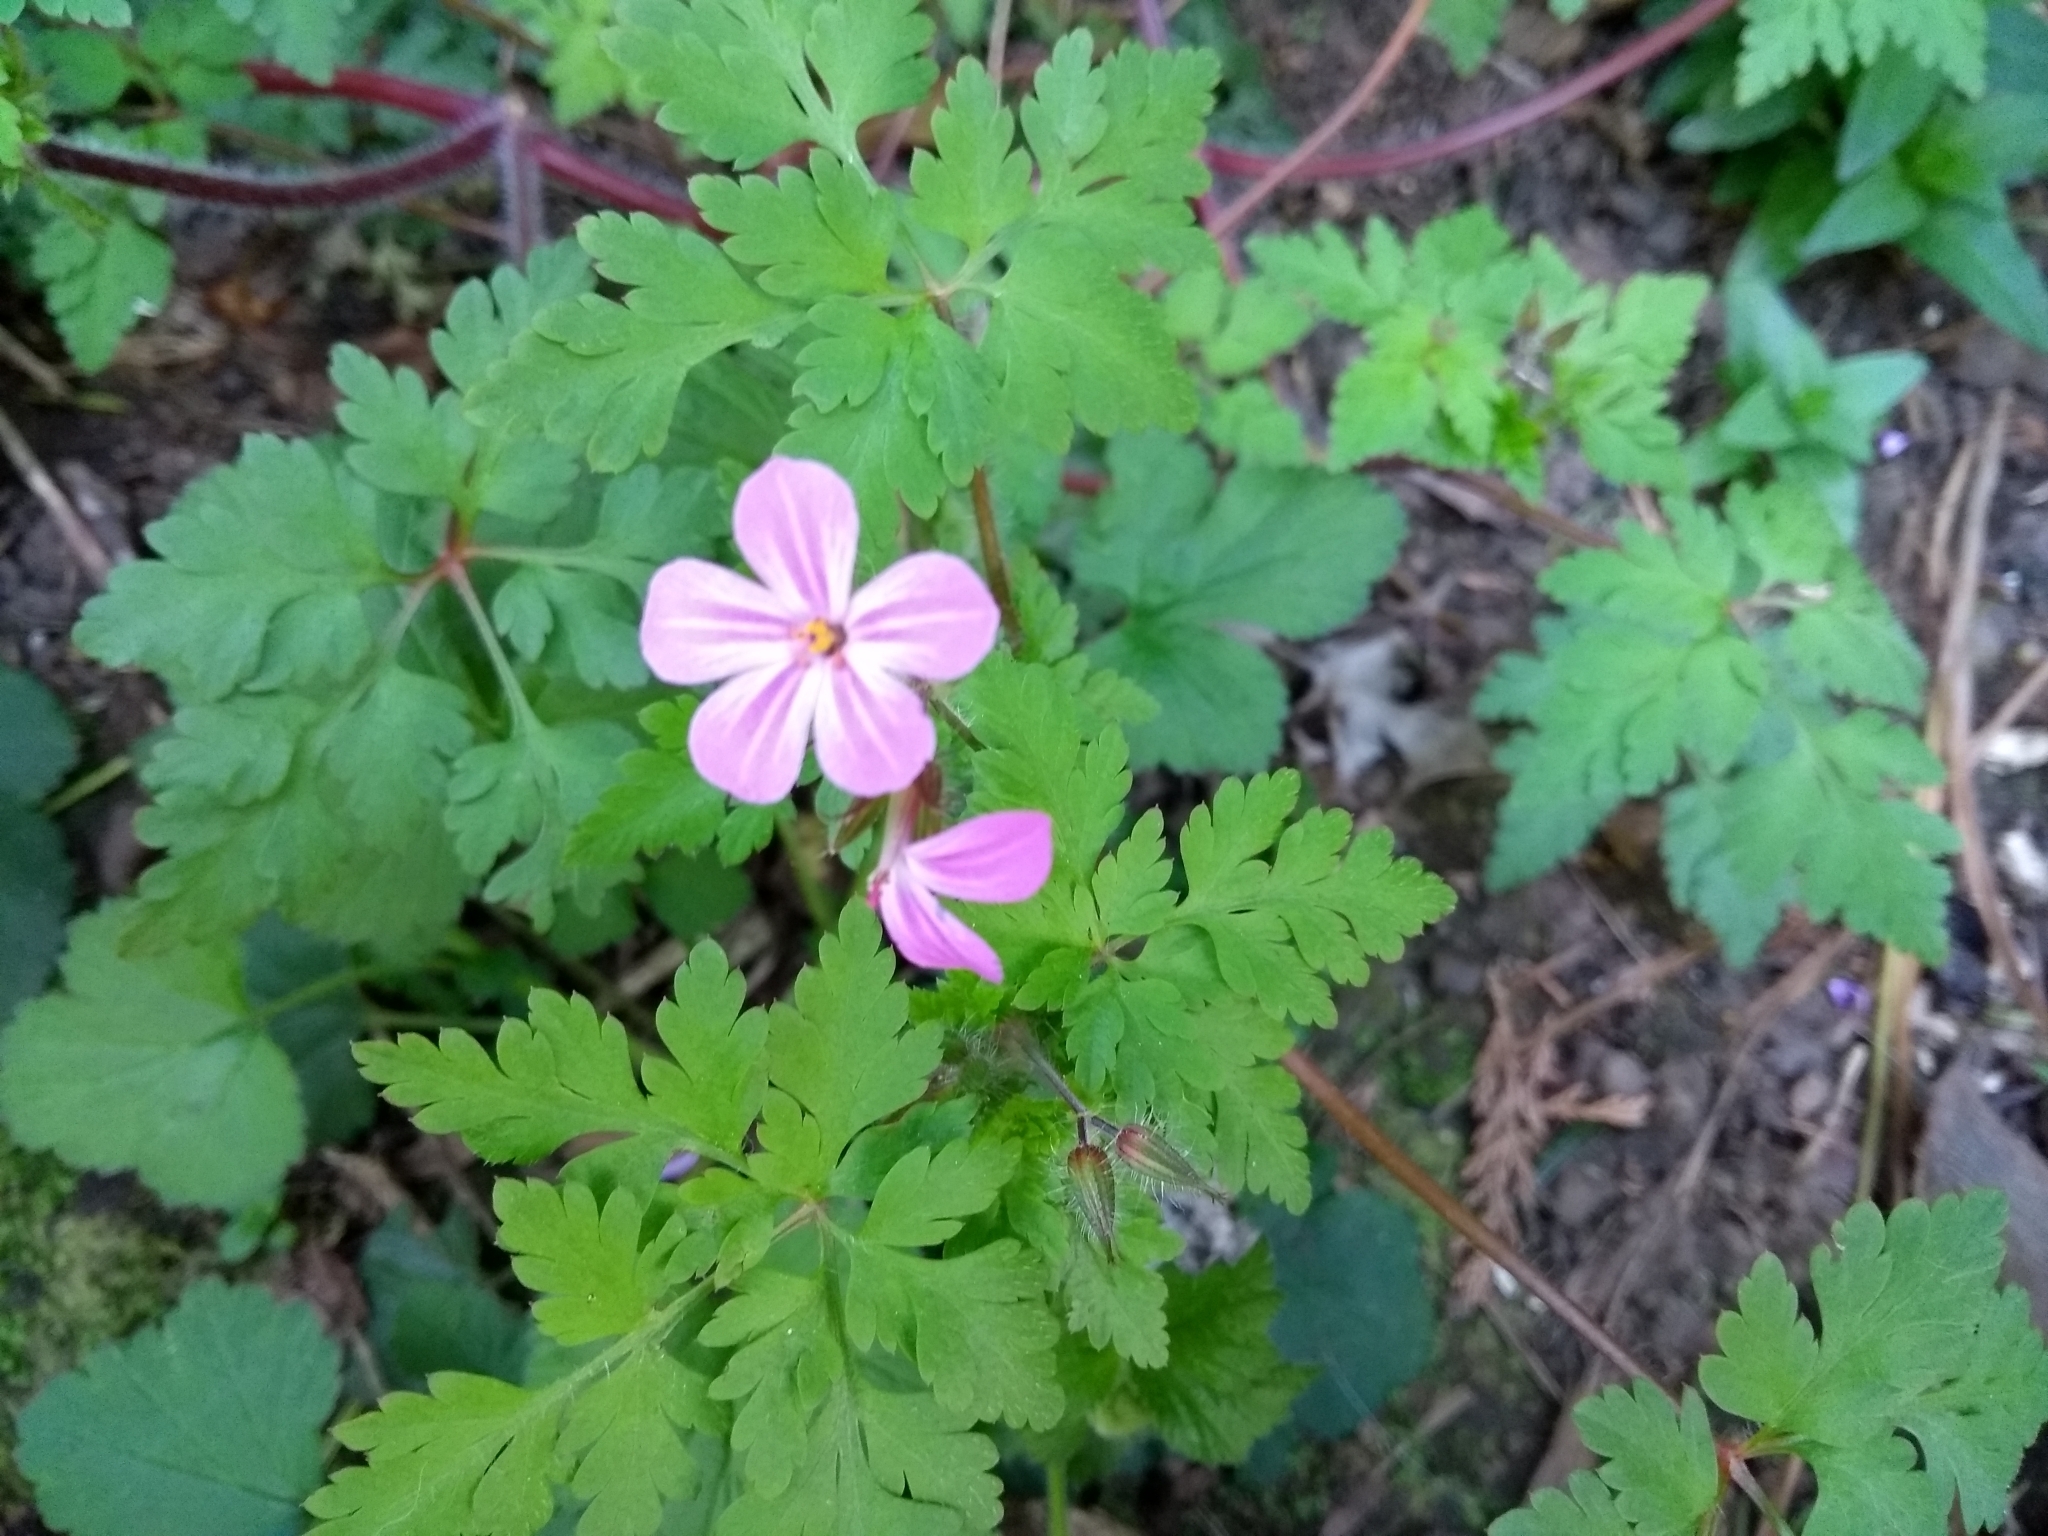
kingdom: Plantae
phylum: Tracheophyta
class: Magnoliopsida
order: Geraniales
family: Geraniaceae
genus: Geranium
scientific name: Geranium robertianum
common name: Herb-robert
